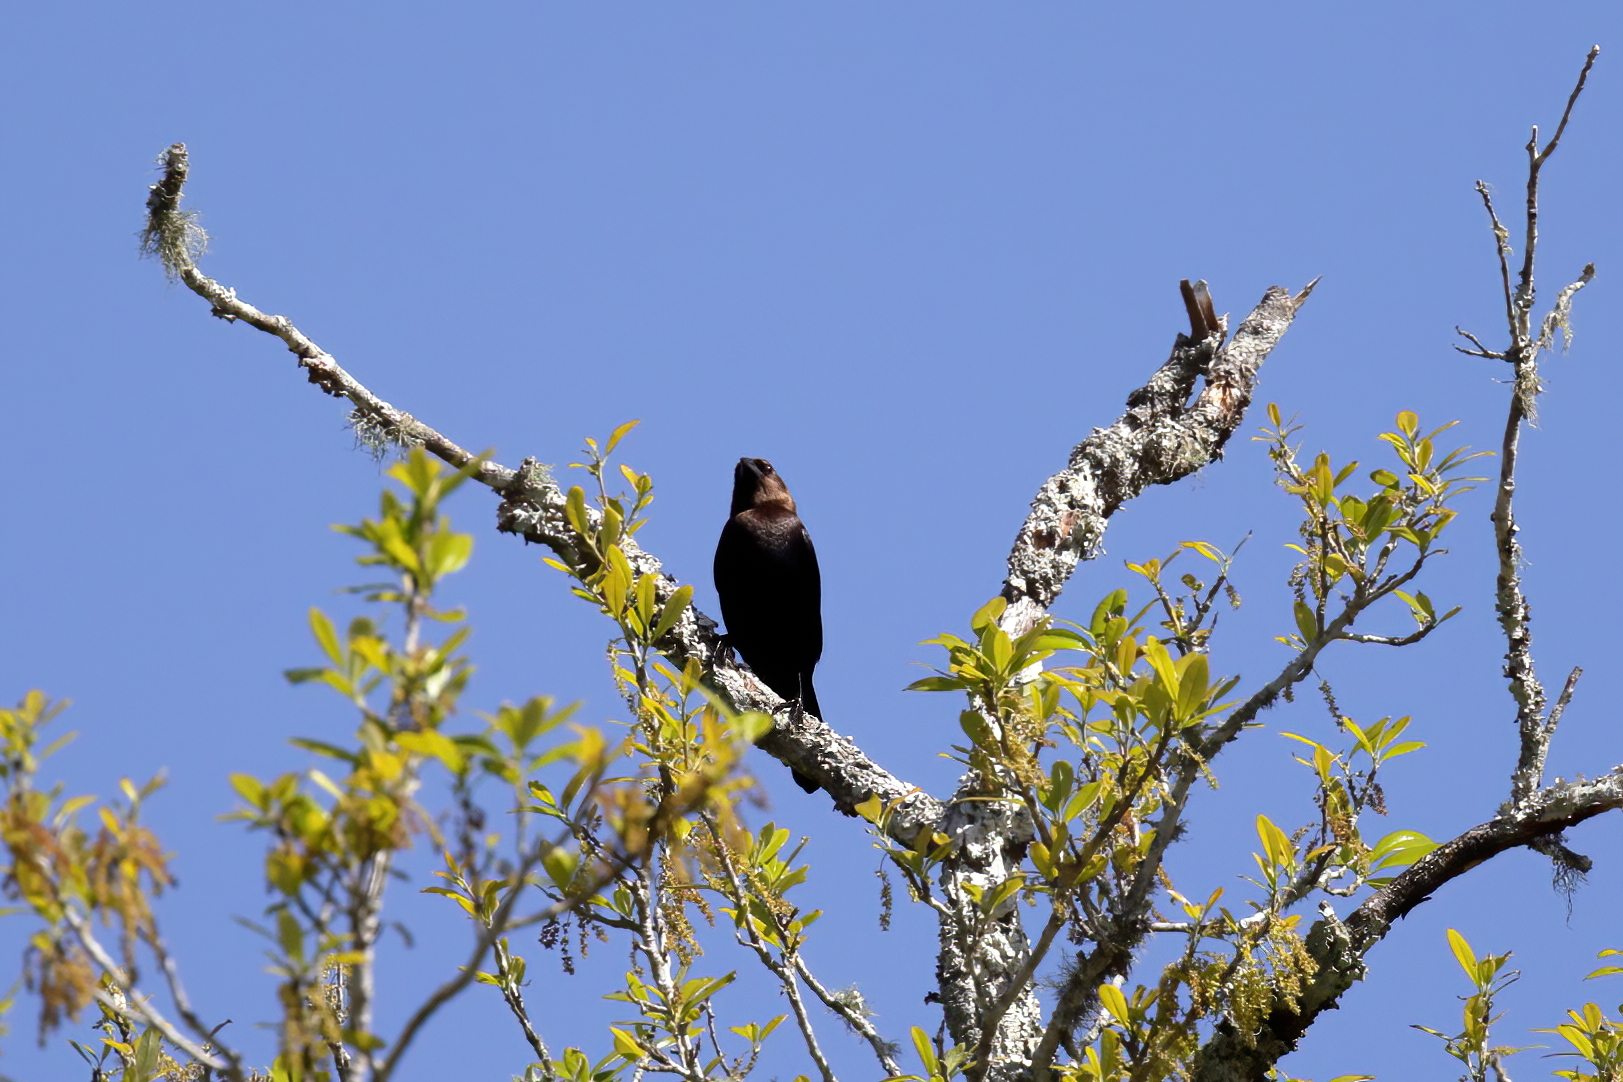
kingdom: Animalia
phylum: Chordata
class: Aves
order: Passeriformes
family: Icteridae
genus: Molothrus
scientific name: Molothrus ater
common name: Brown-headed cowbird
